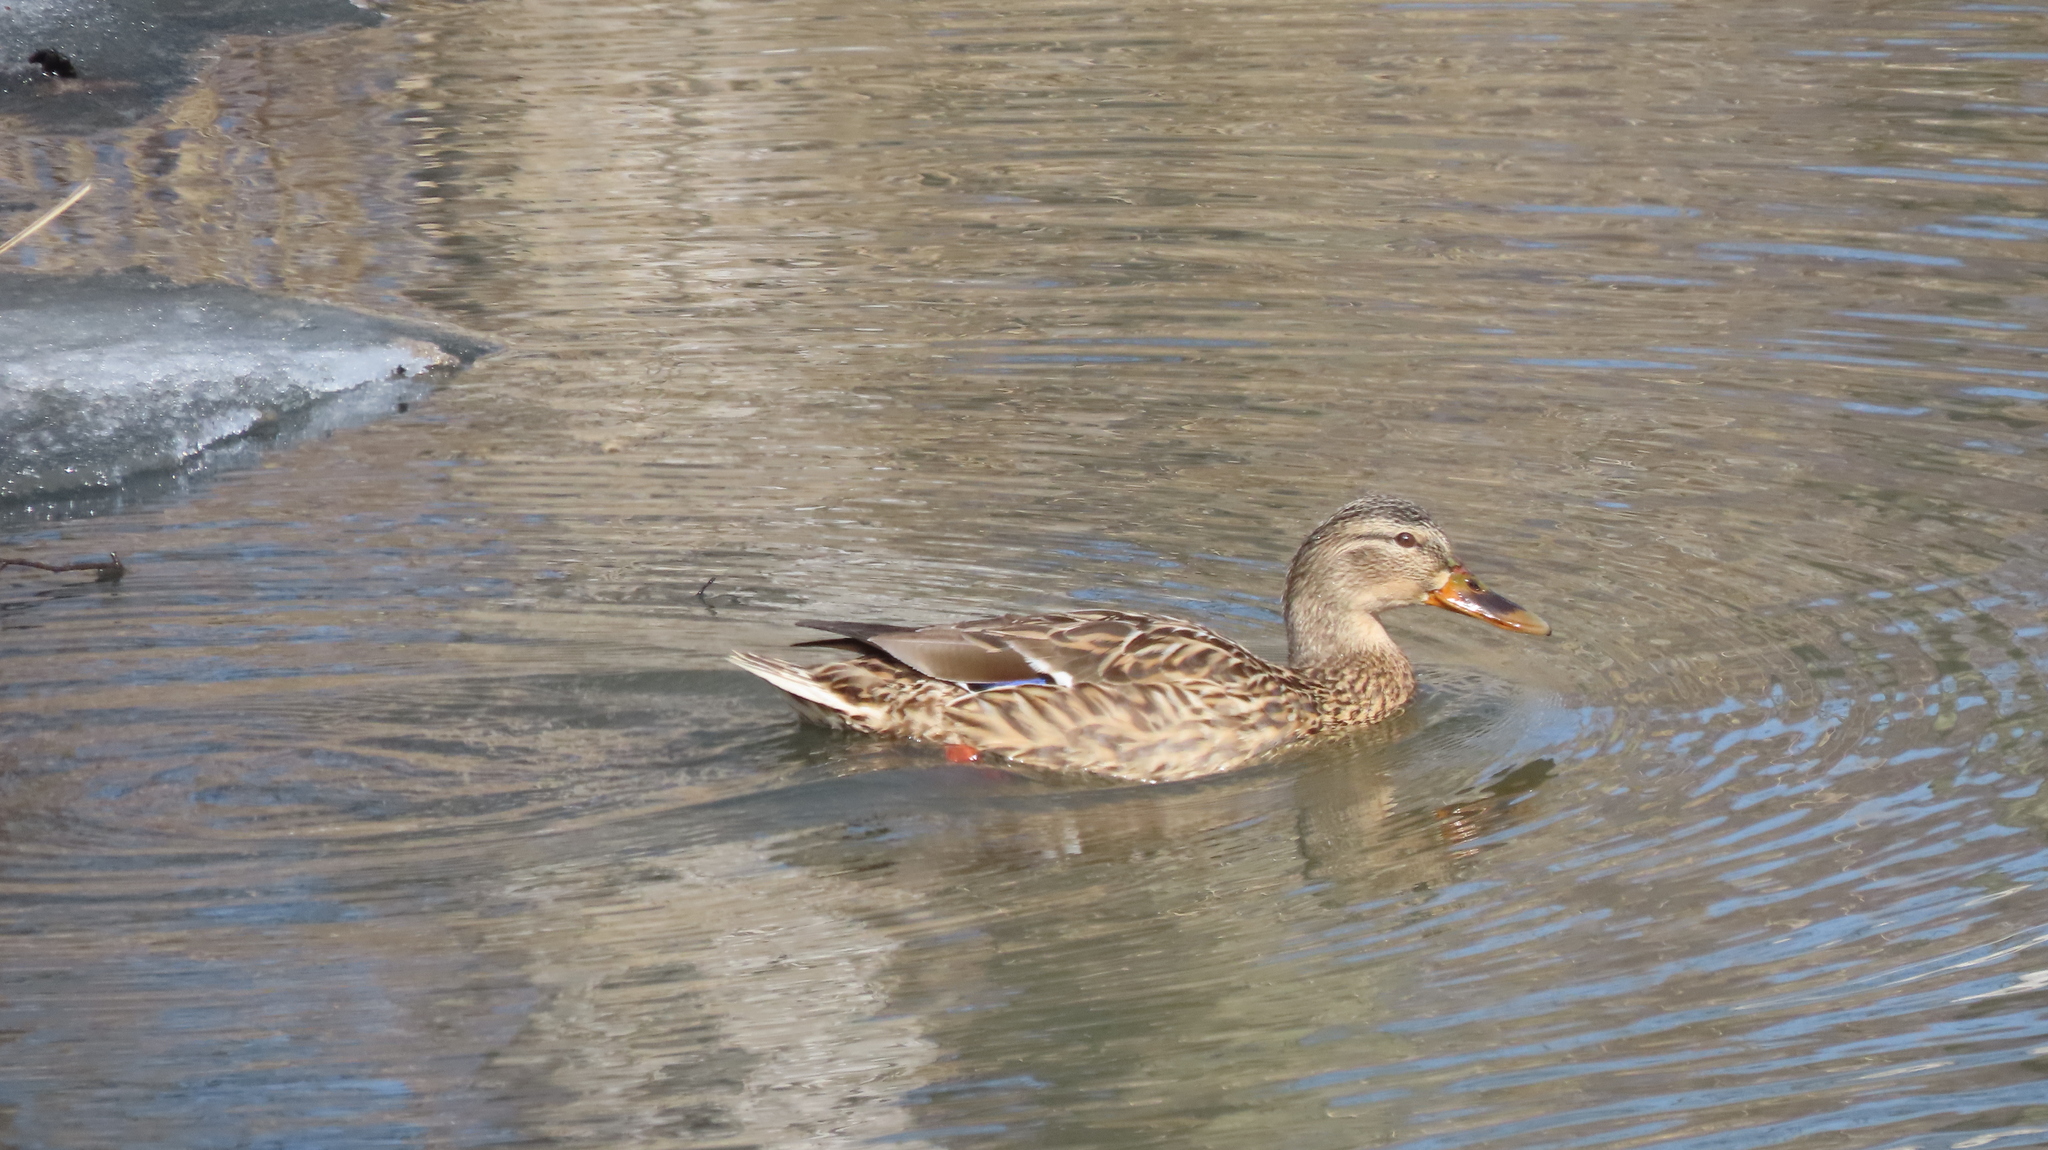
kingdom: Animalia
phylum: Chordata
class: Aves
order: Anseriformes
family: Anatidae
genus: Anas
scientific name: Anas platyrhynchos
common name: Mallard
